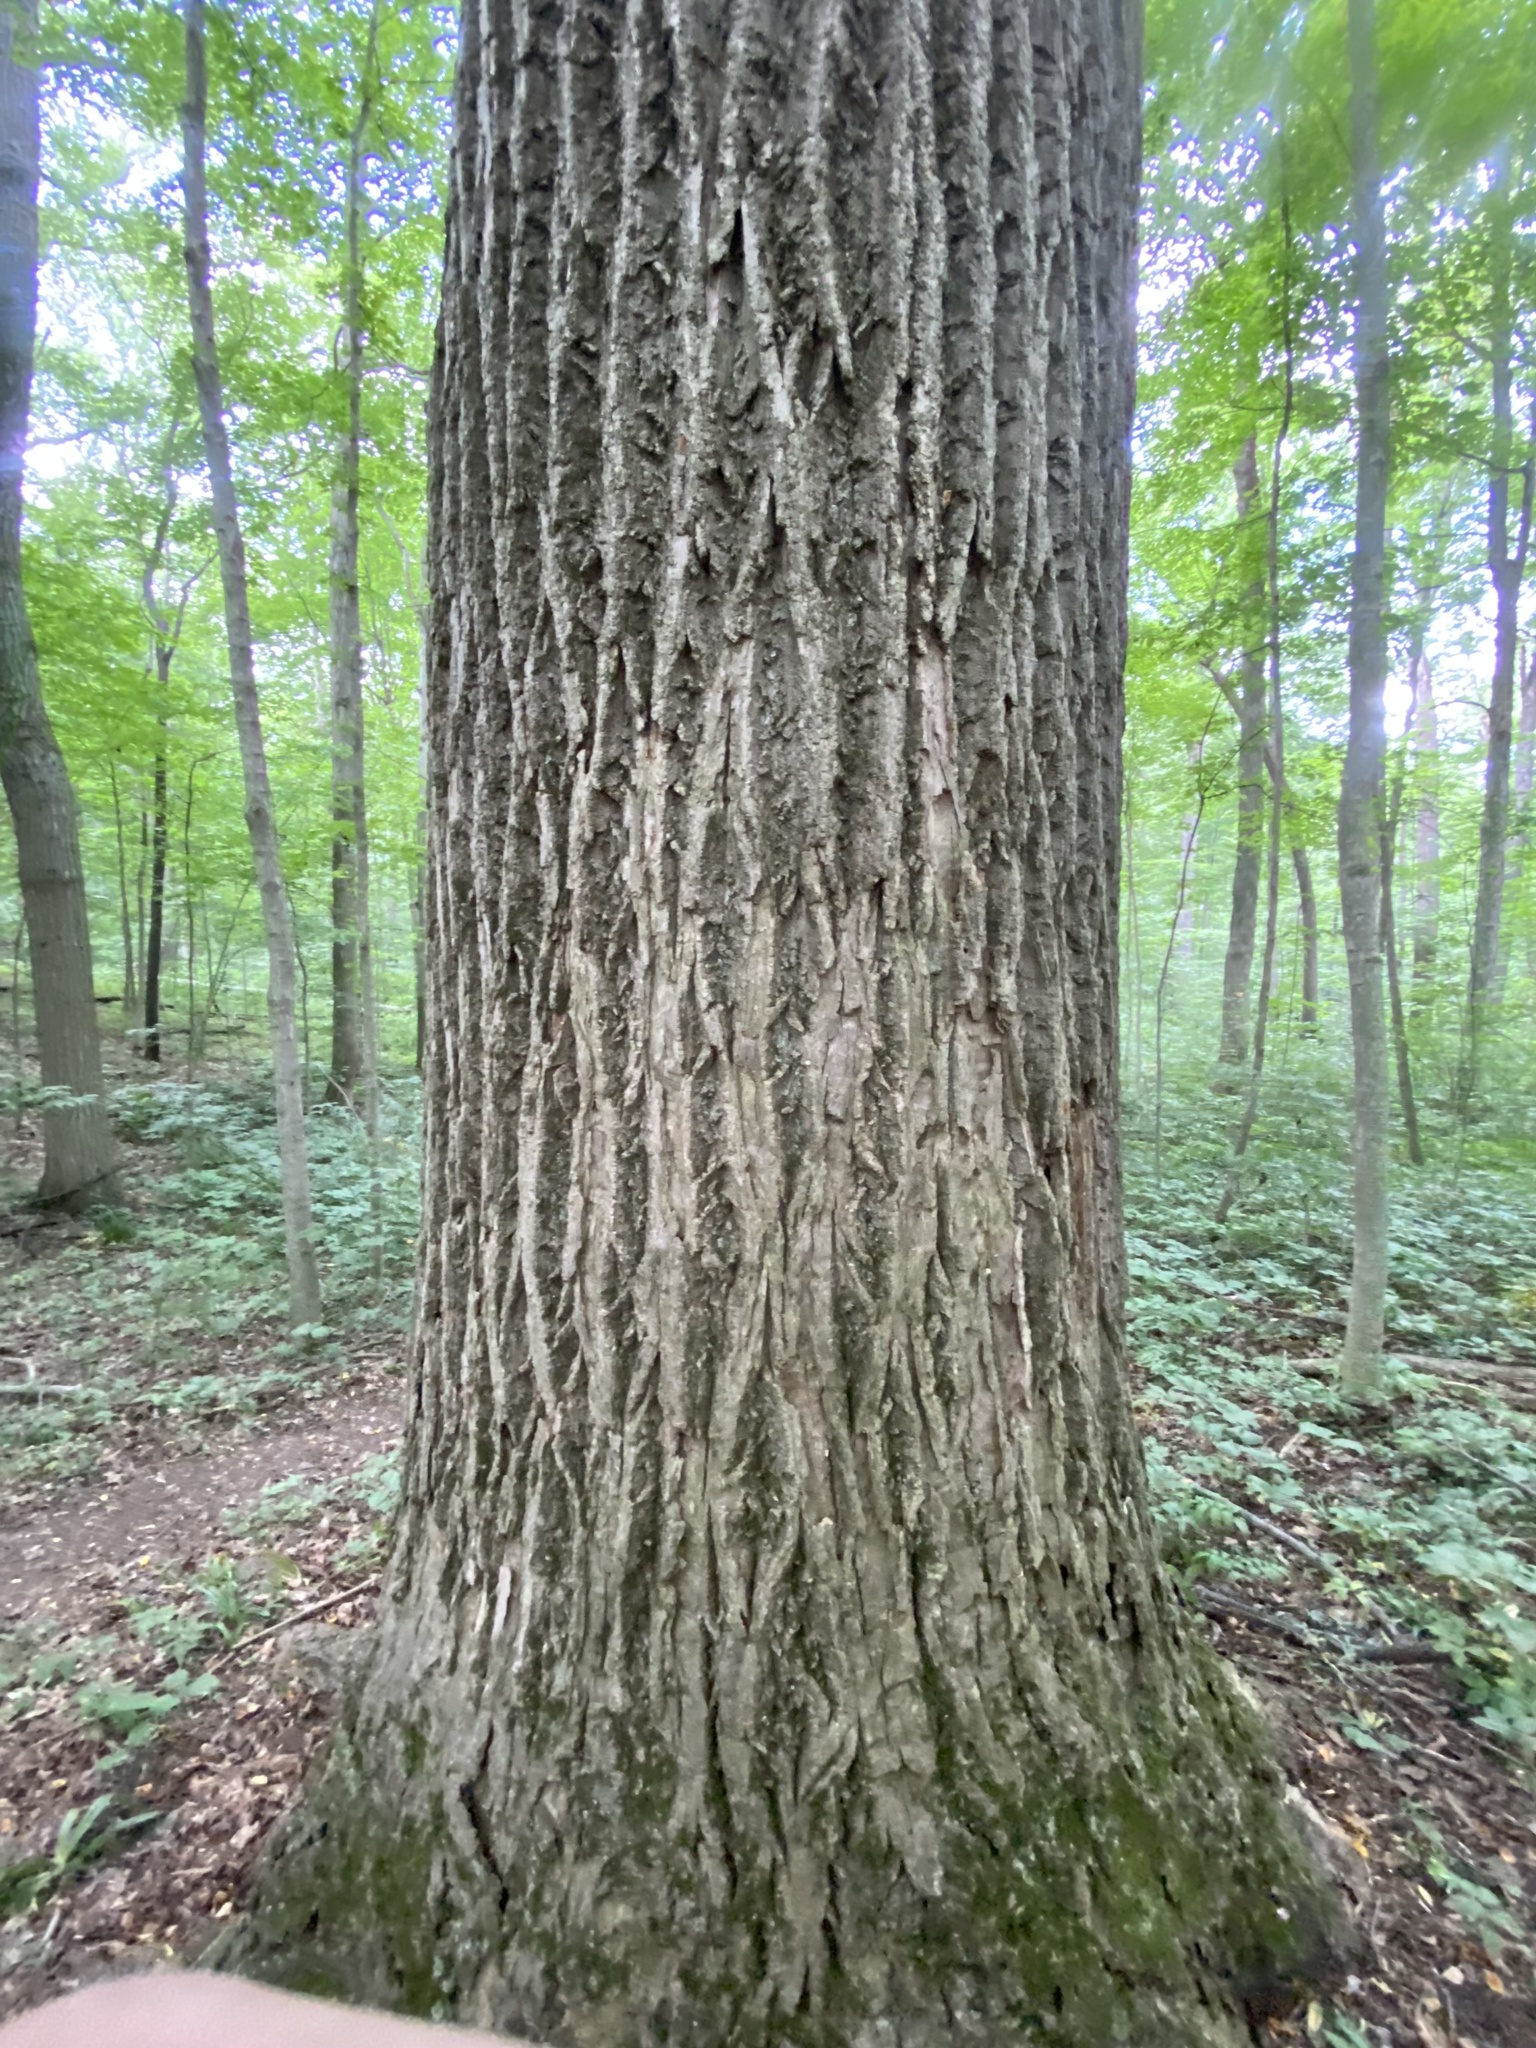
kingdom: Plantae
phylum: Tracheophyta
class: Magnoliopsida
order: Magnoliales
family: Magnoliaceae
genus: Liriodendron
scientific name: Liriodendron tulipifera
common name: Tulip tree
